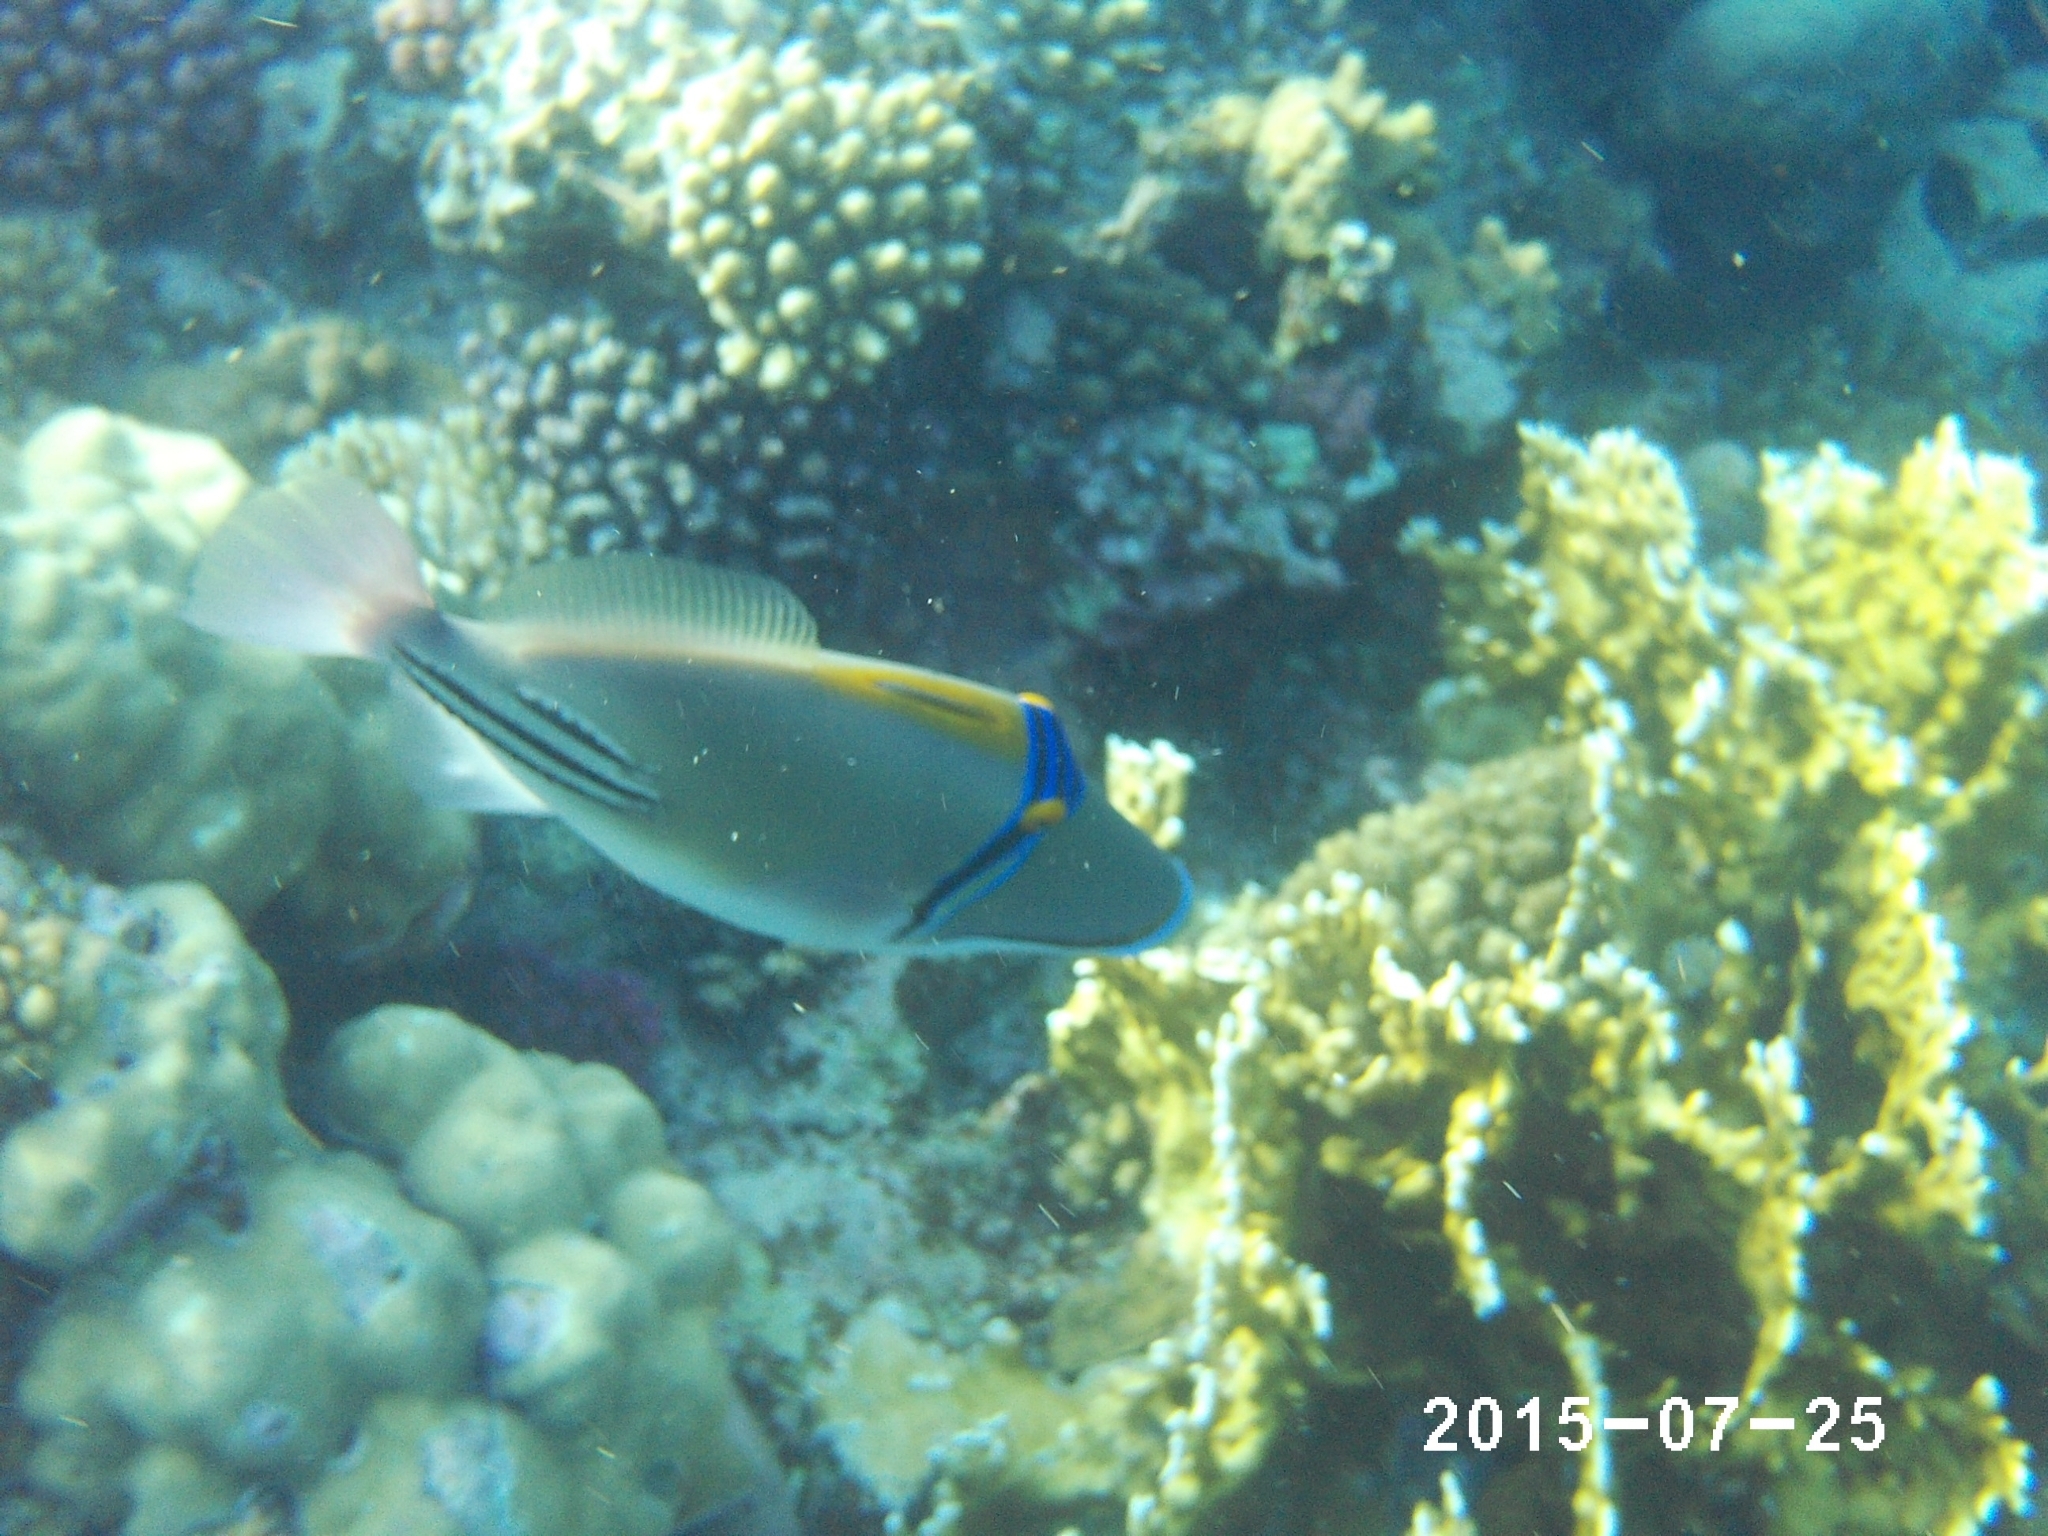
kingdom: Animalia
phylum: Chordata
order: Tetraodontiformes
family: Balistidae
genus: Rhinecanthus
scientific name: Rhinecanthus assasi
